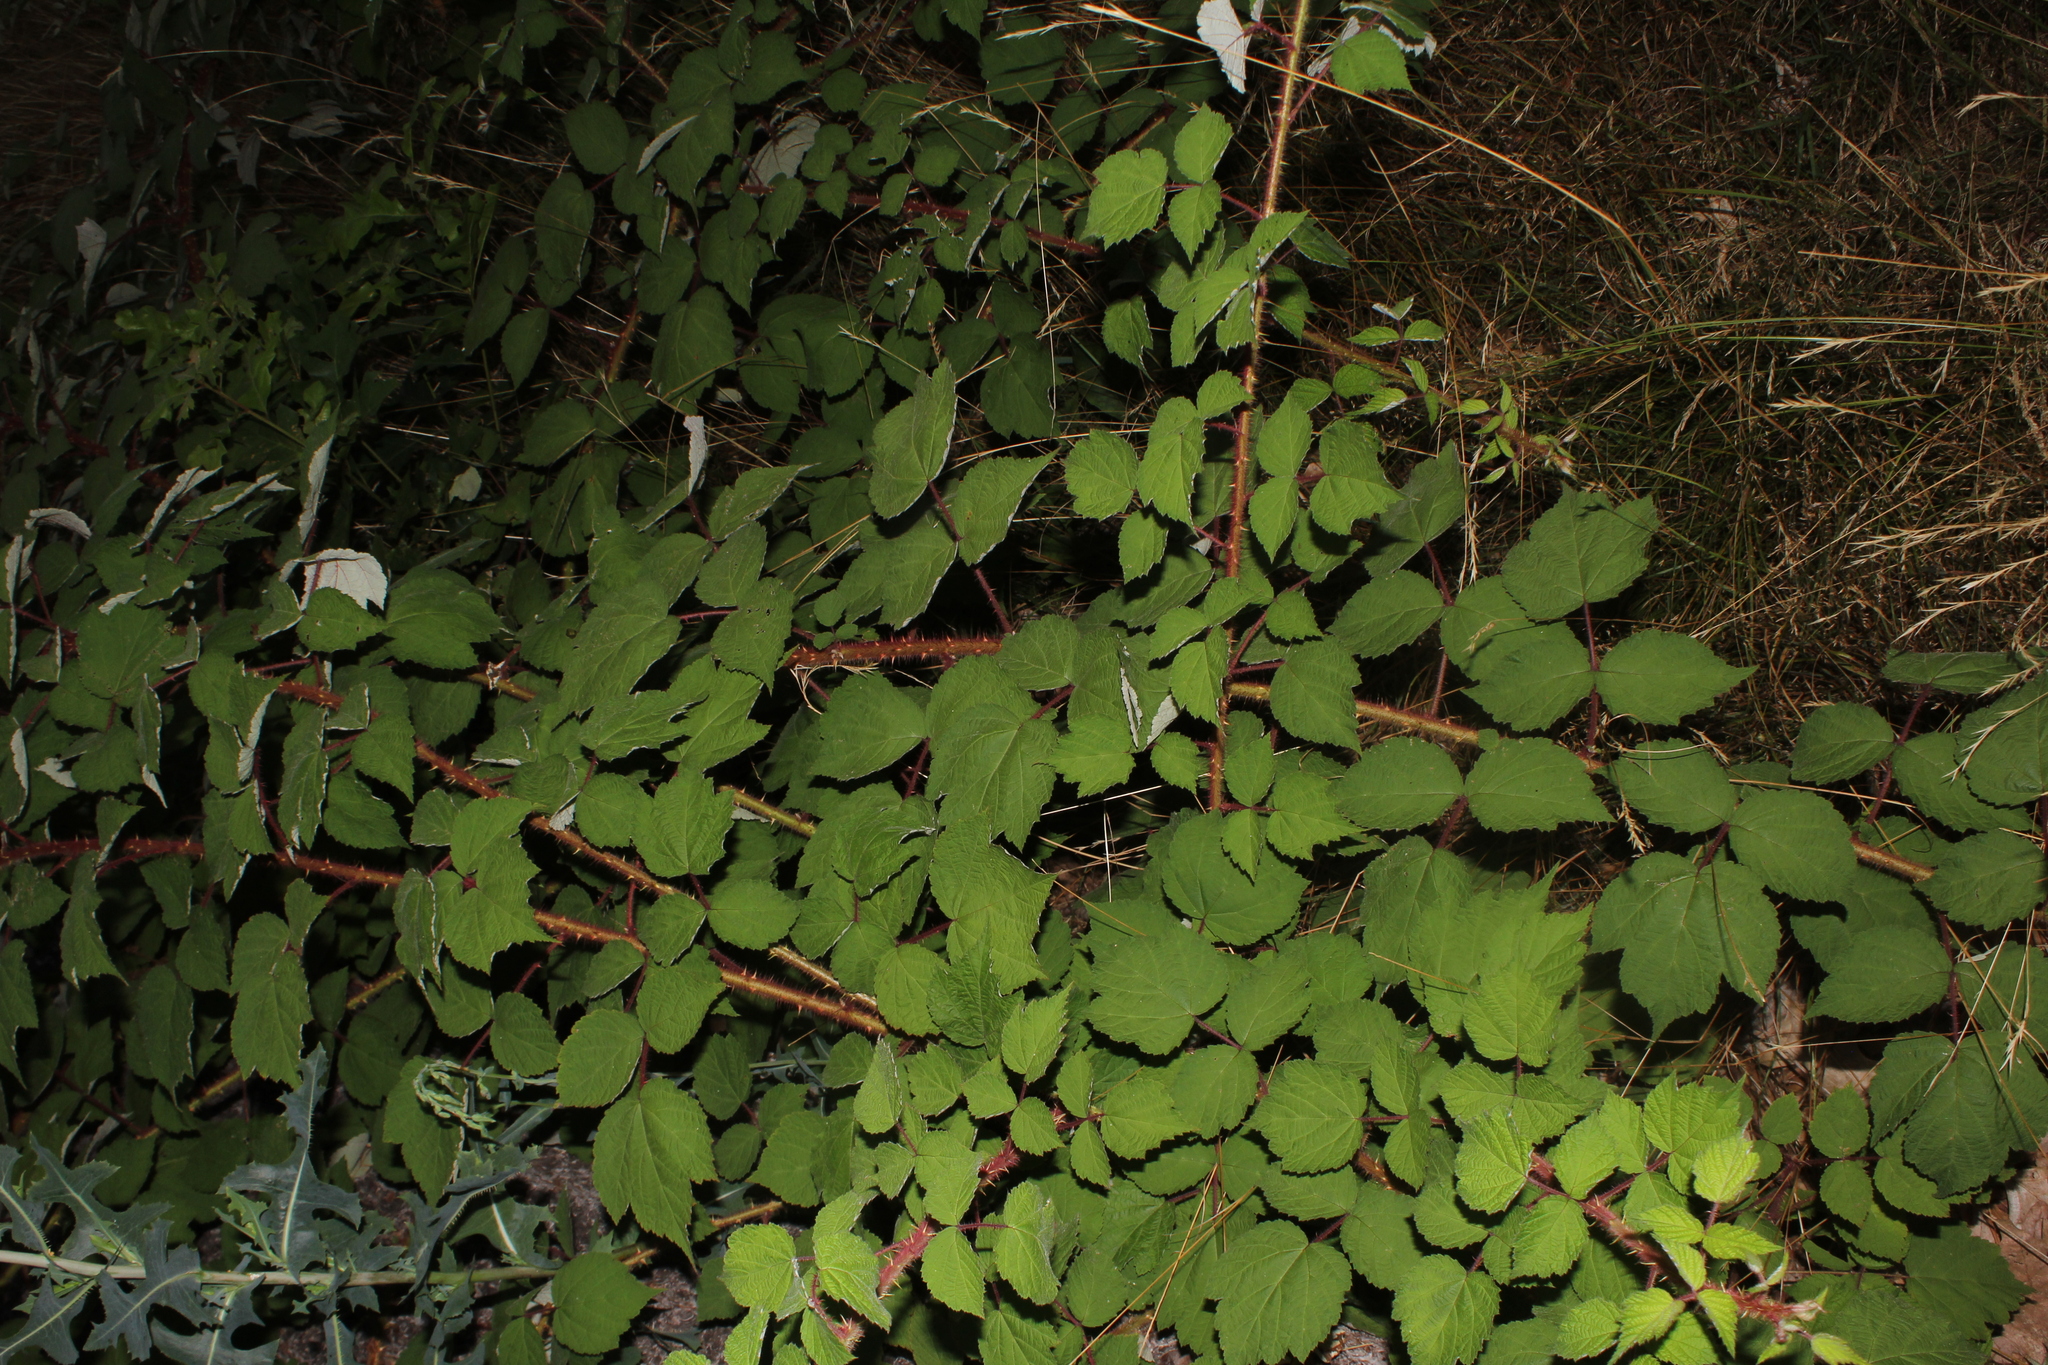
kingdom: Plantae
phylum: Tracheophyta
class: Magnoliopsida
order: Rosales
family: Rosaceae
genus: Rubus
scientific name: Rubus phoenicolasius
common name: Japanese wineberry
